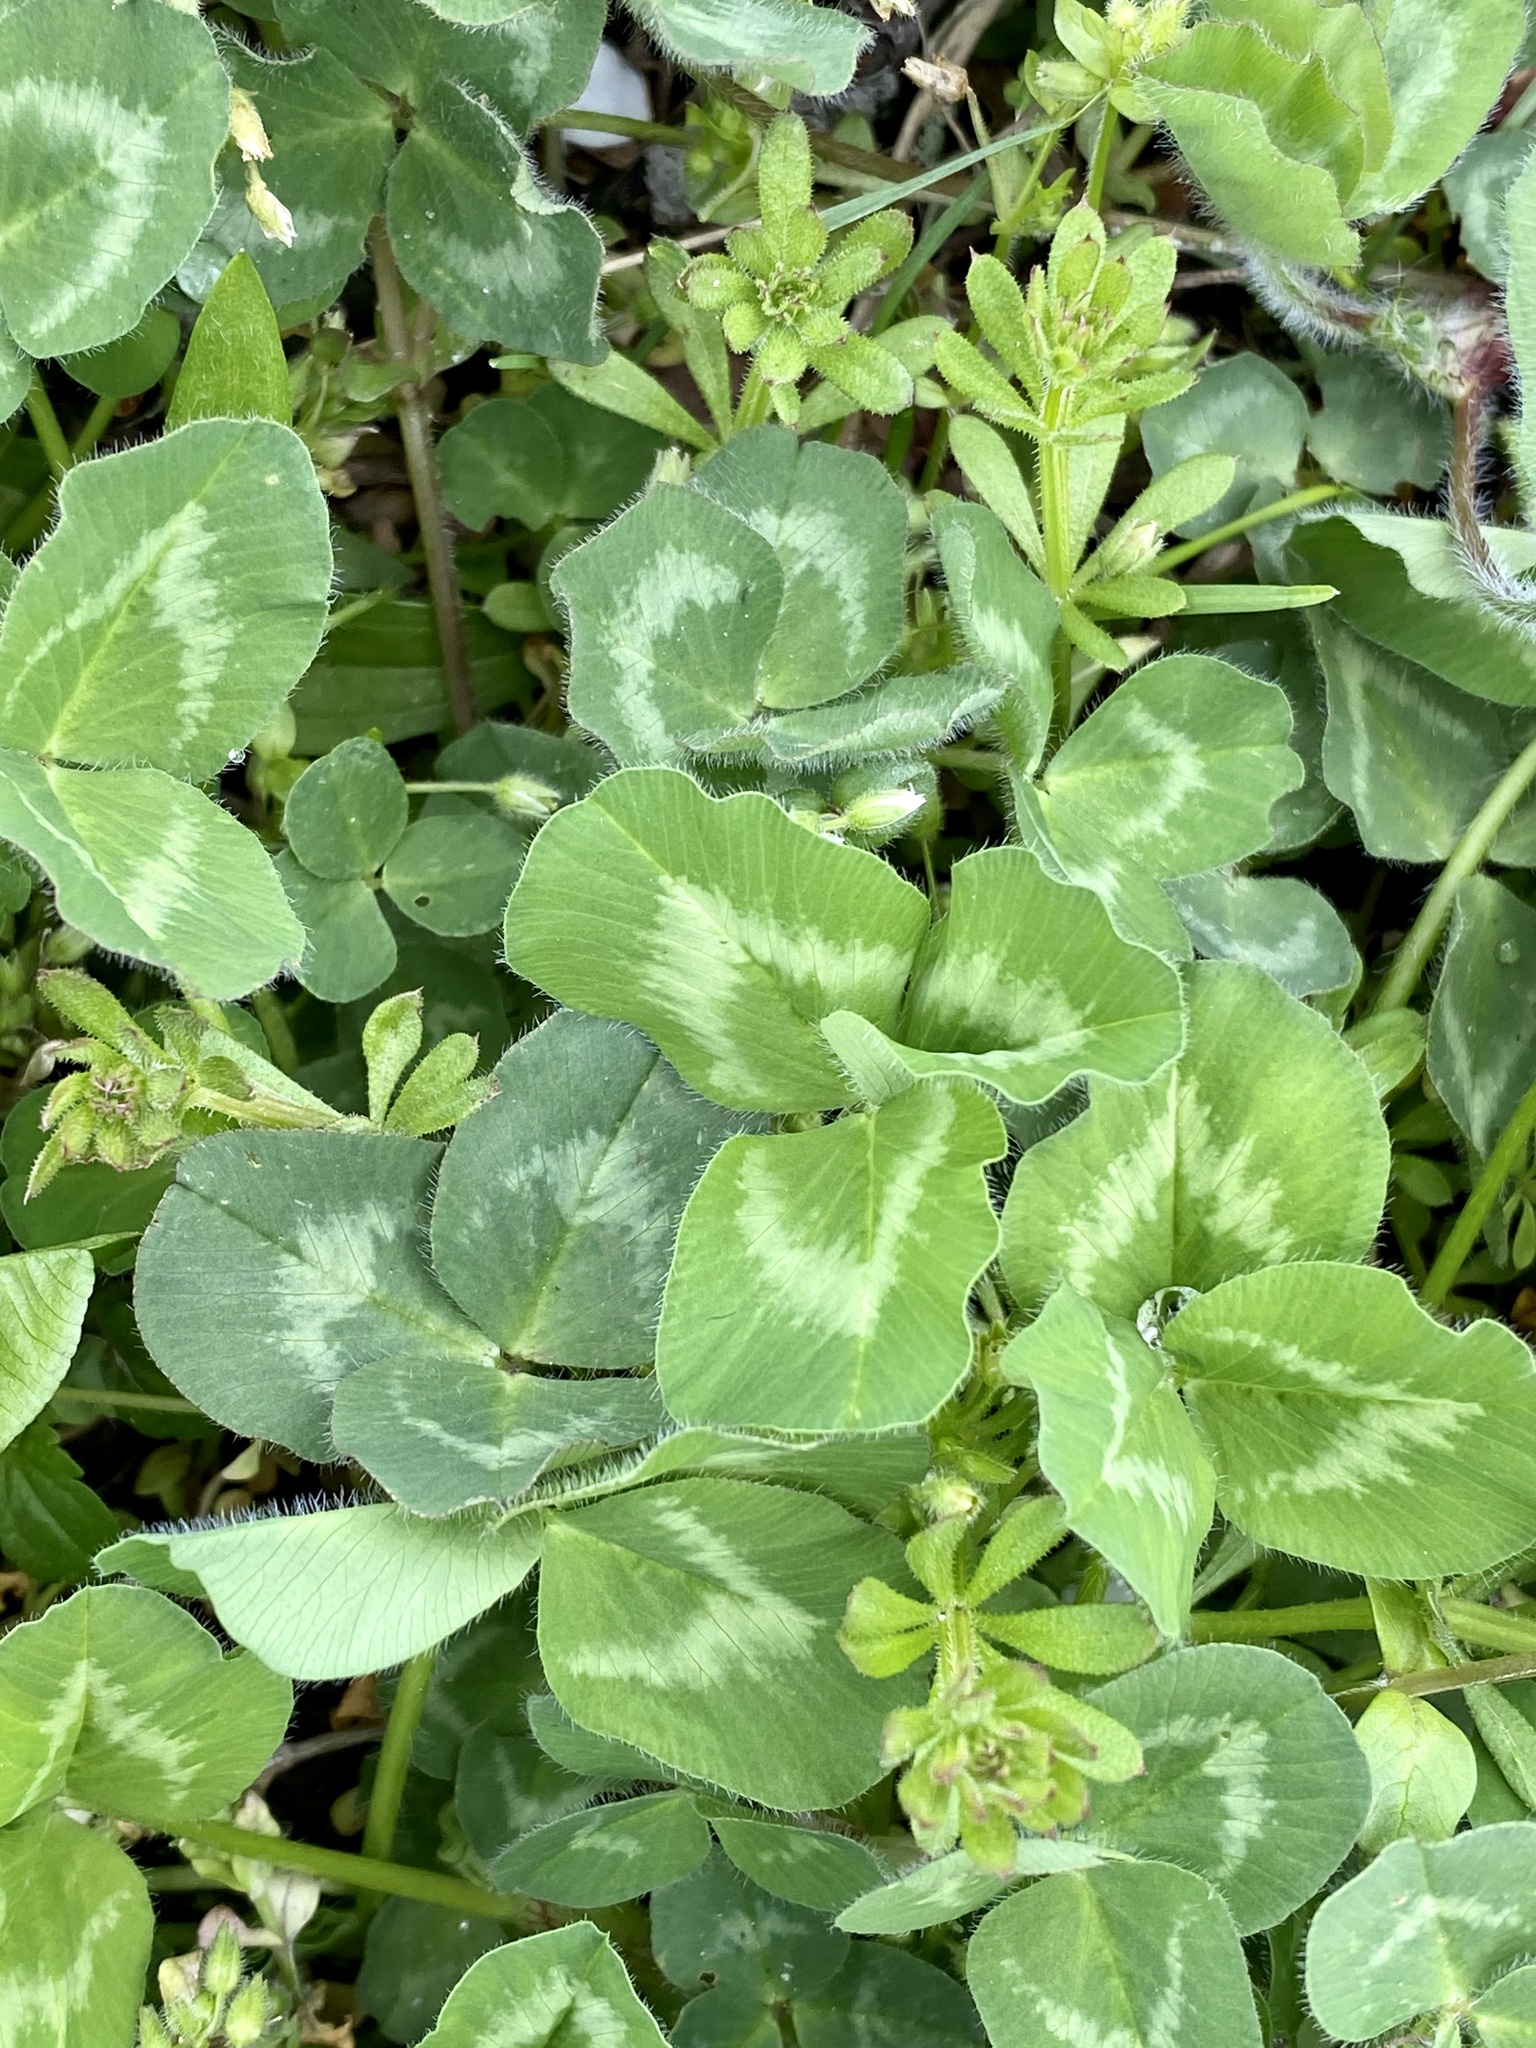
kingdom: Plantae
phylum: Tracheophyta
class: Magnoliopsida
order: Fabales
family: Fabaceae
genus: Trifolium
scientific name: Trifolium pratense
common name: Red clover
